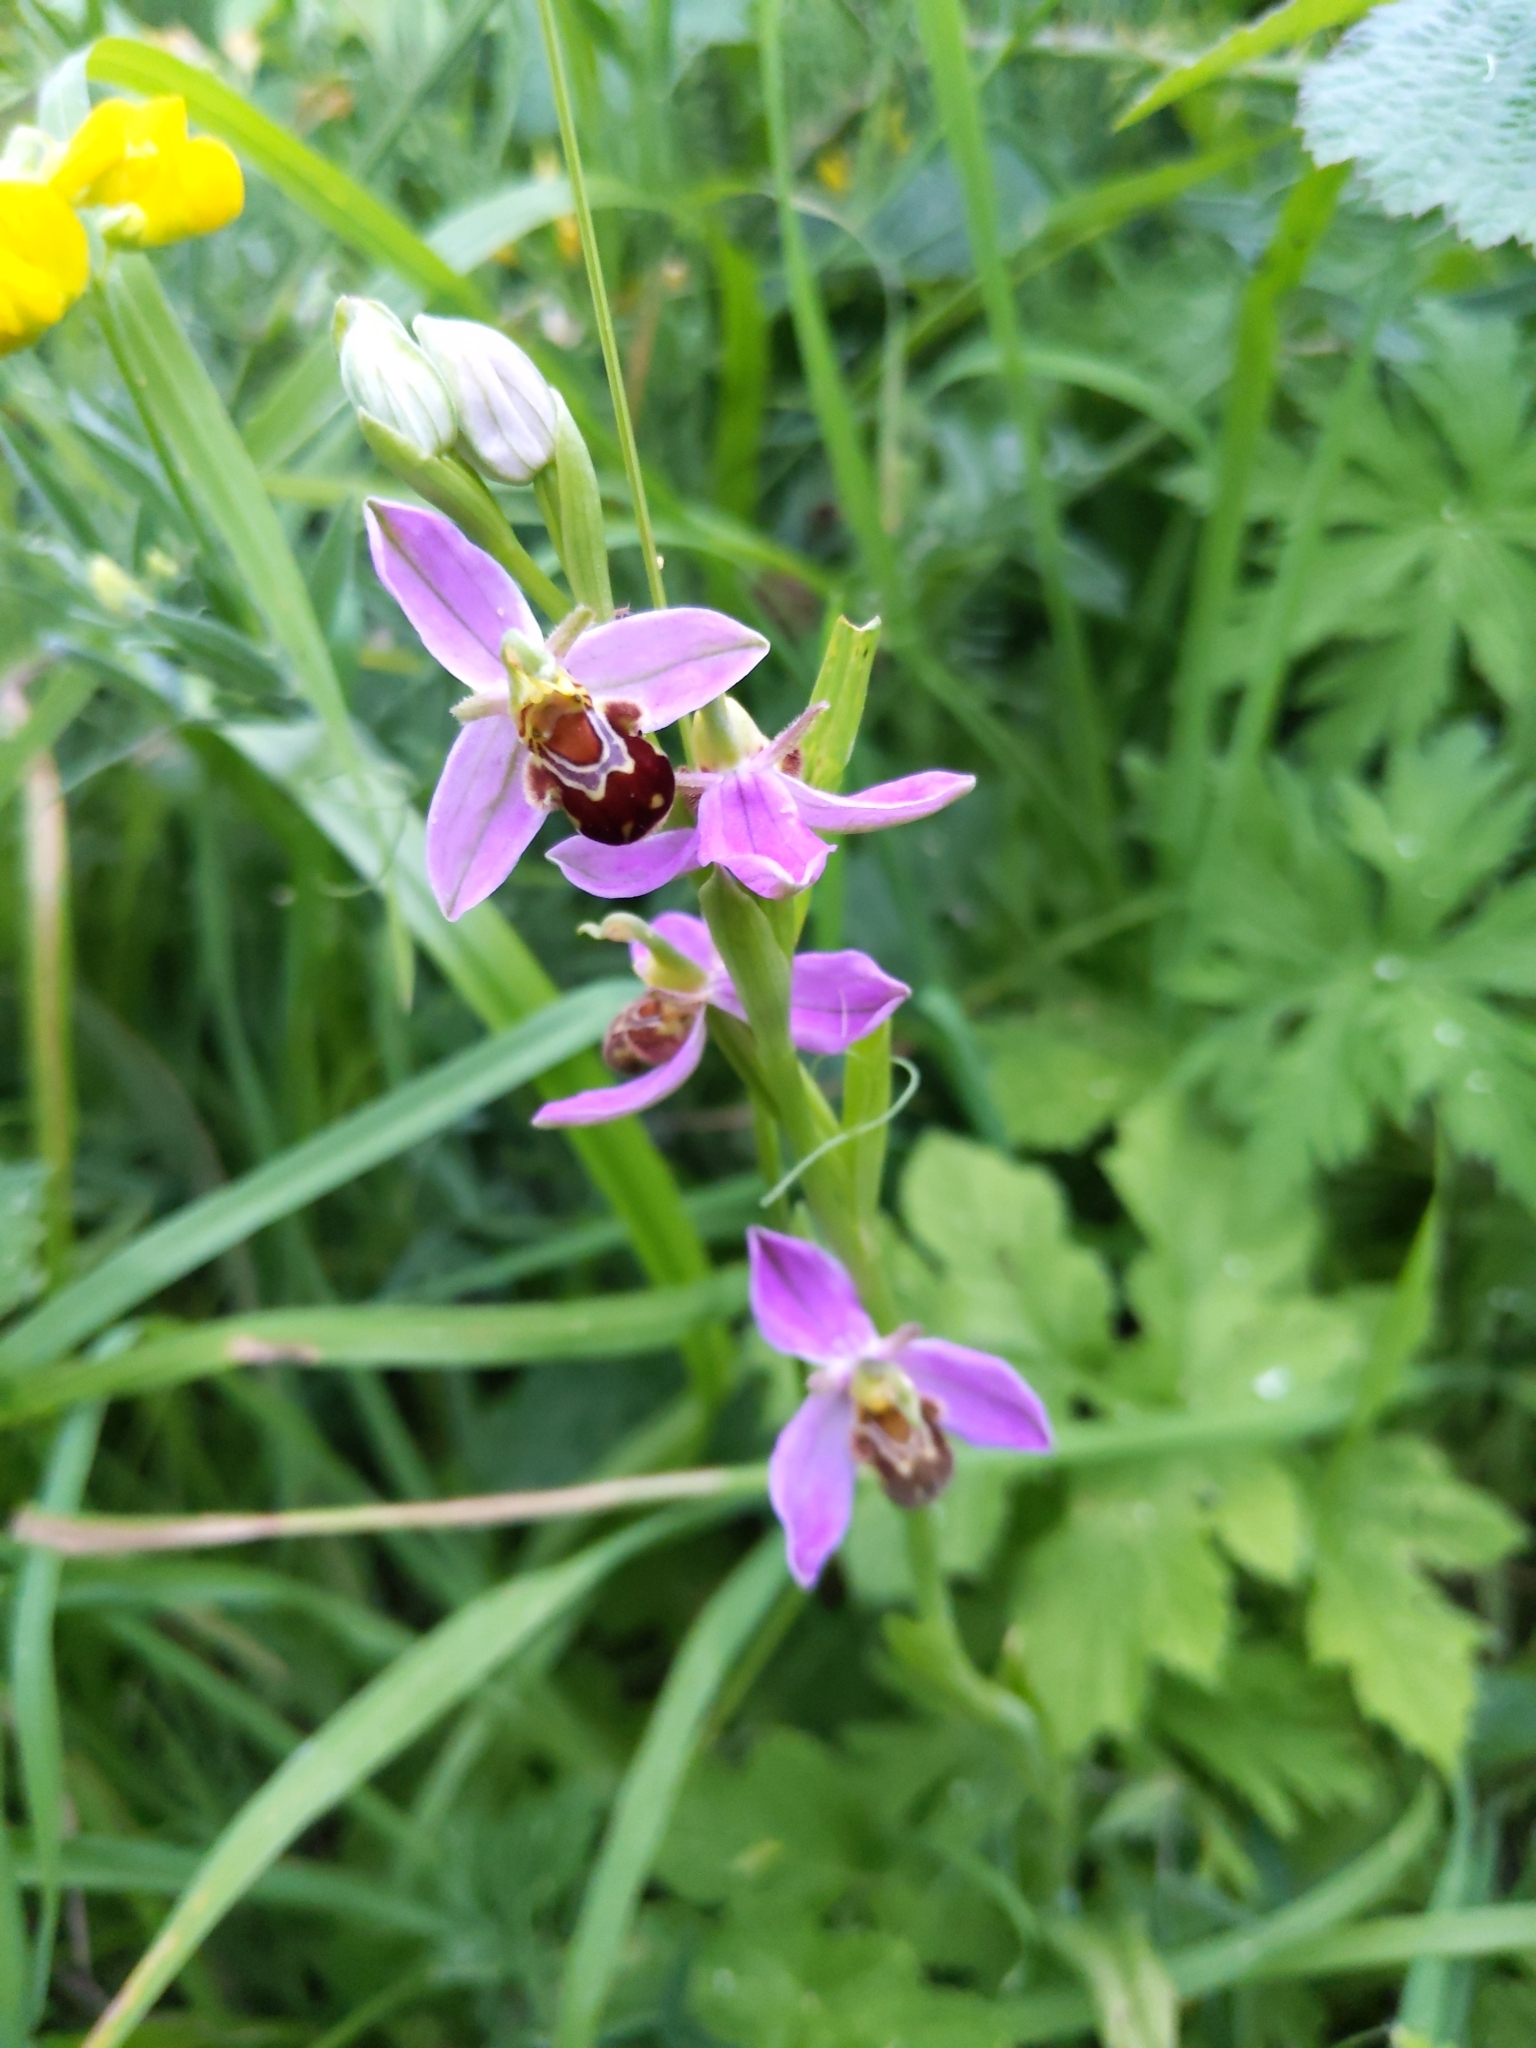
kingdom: Plantae
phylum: Tracheophyta
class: Liliopsida
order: Asparagales
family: Orchidaceae
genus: Ophrys
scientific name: Ophrys apifera
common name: Bee orchid
